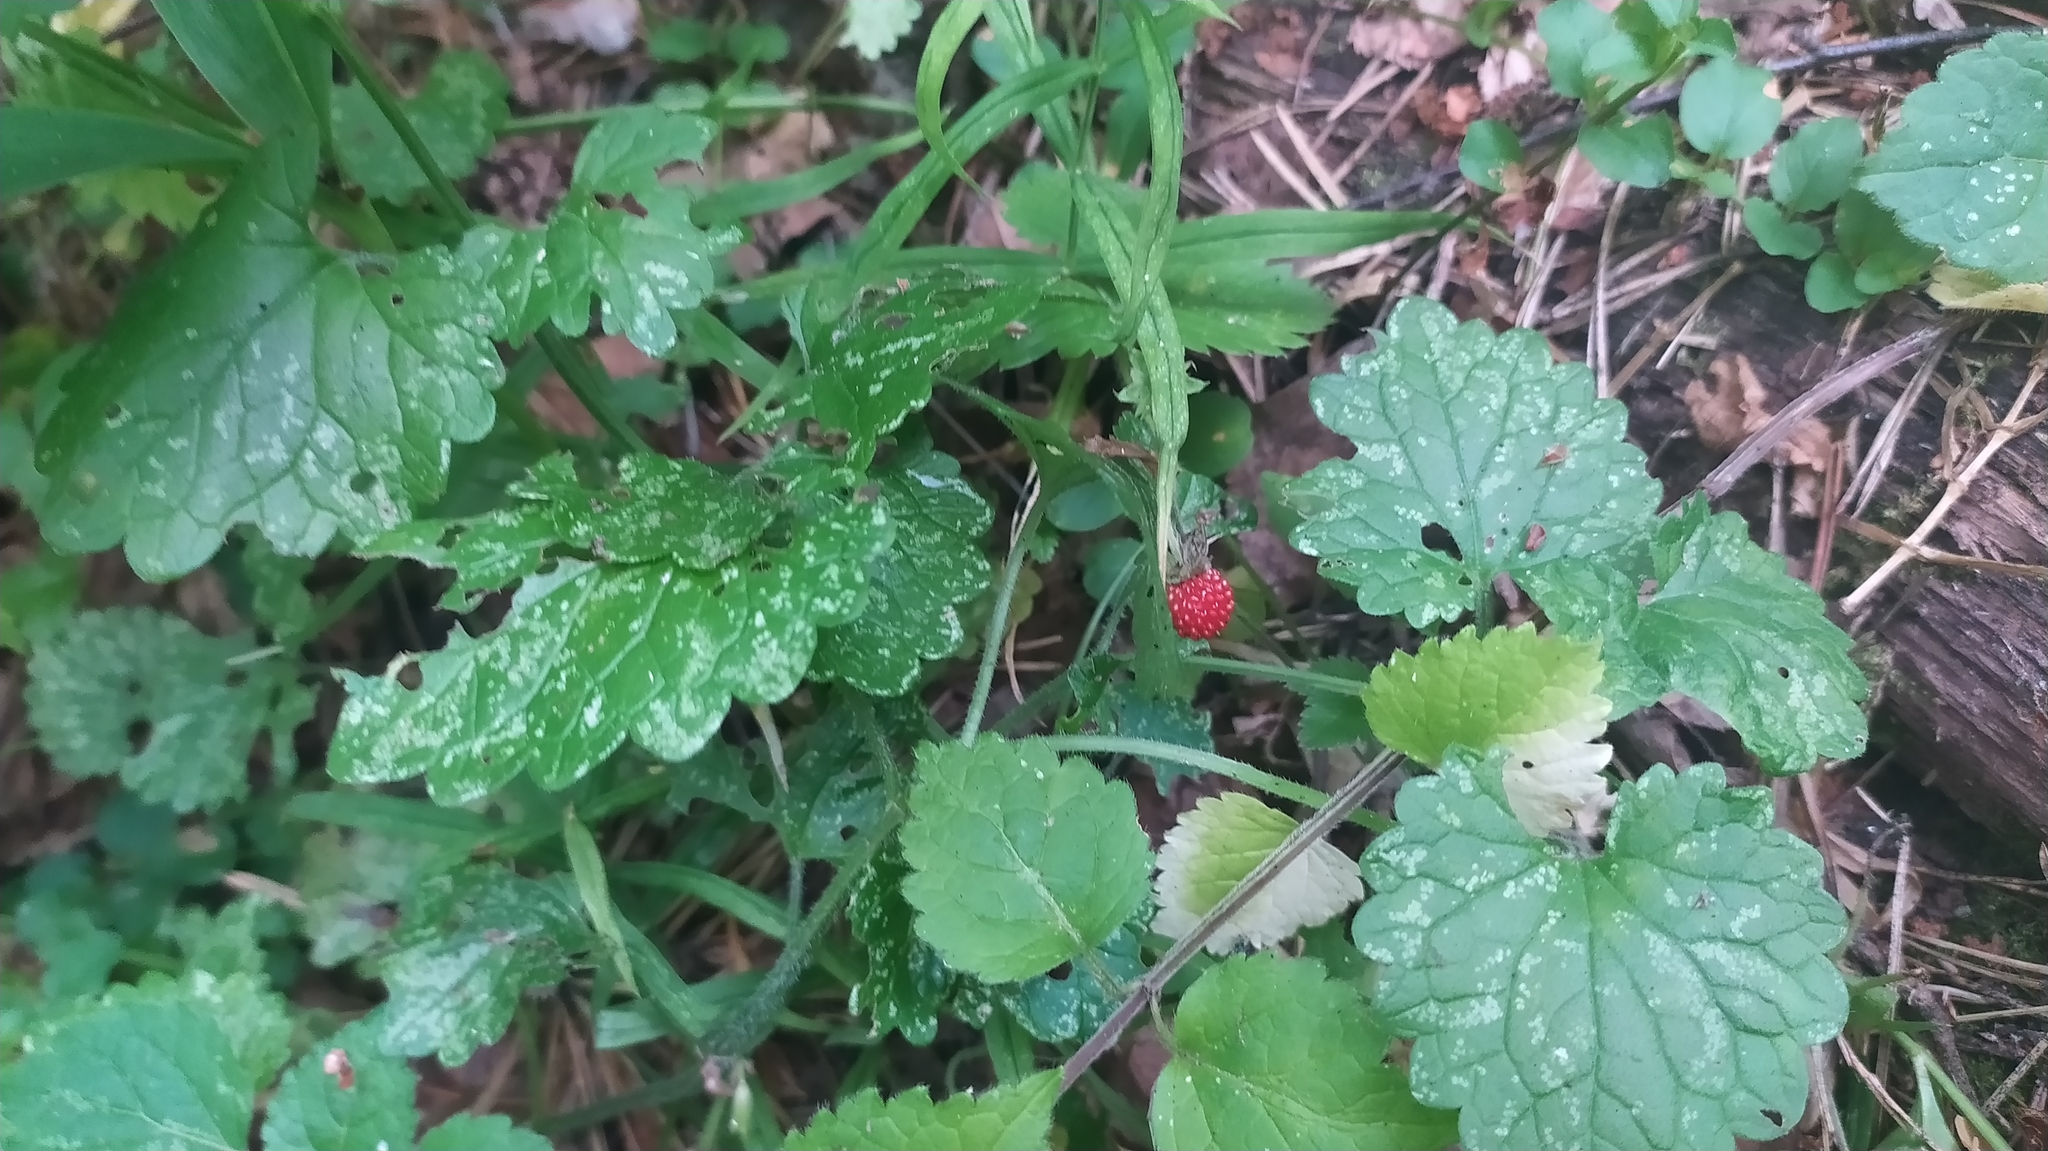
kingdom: Plantae
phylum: Tracheophyta
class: Magnoliopsida
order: Rosales
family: Rosaceae
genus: Fragaria
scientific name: Fragaria vesca
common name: Wild strawberry
